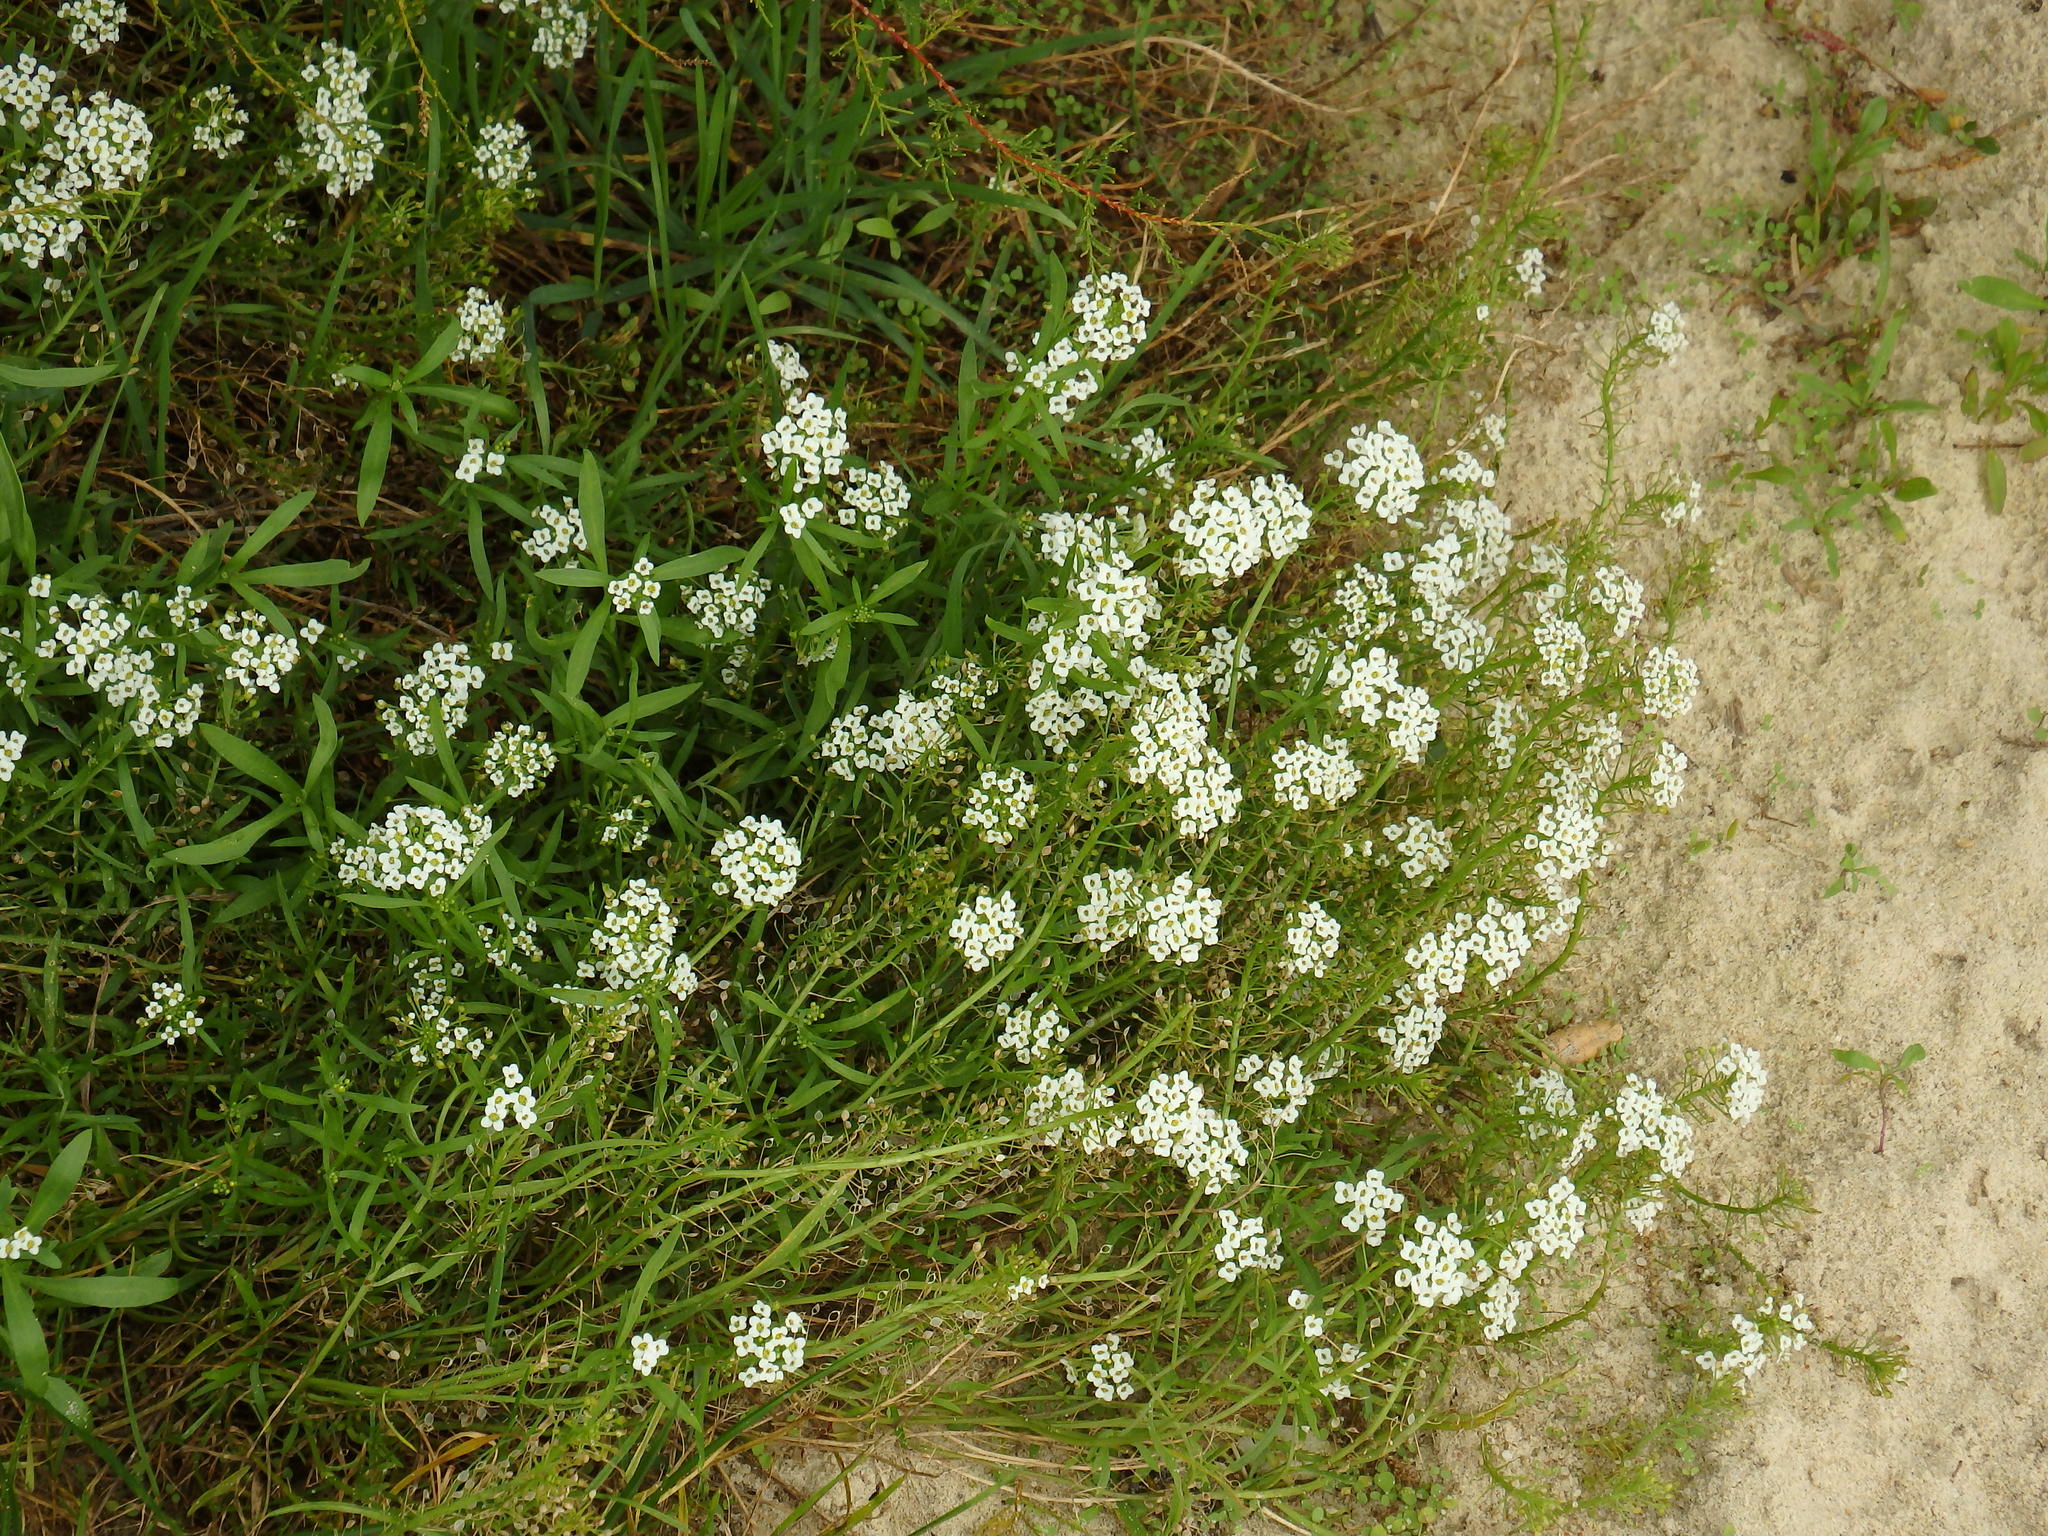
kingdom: Plantae
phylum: Tracheophyta
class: Magnoliopsida
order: Brassicales
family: Brassicaceae
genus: Lobularia
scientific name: Lobularia maritima
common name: Sweet alison
